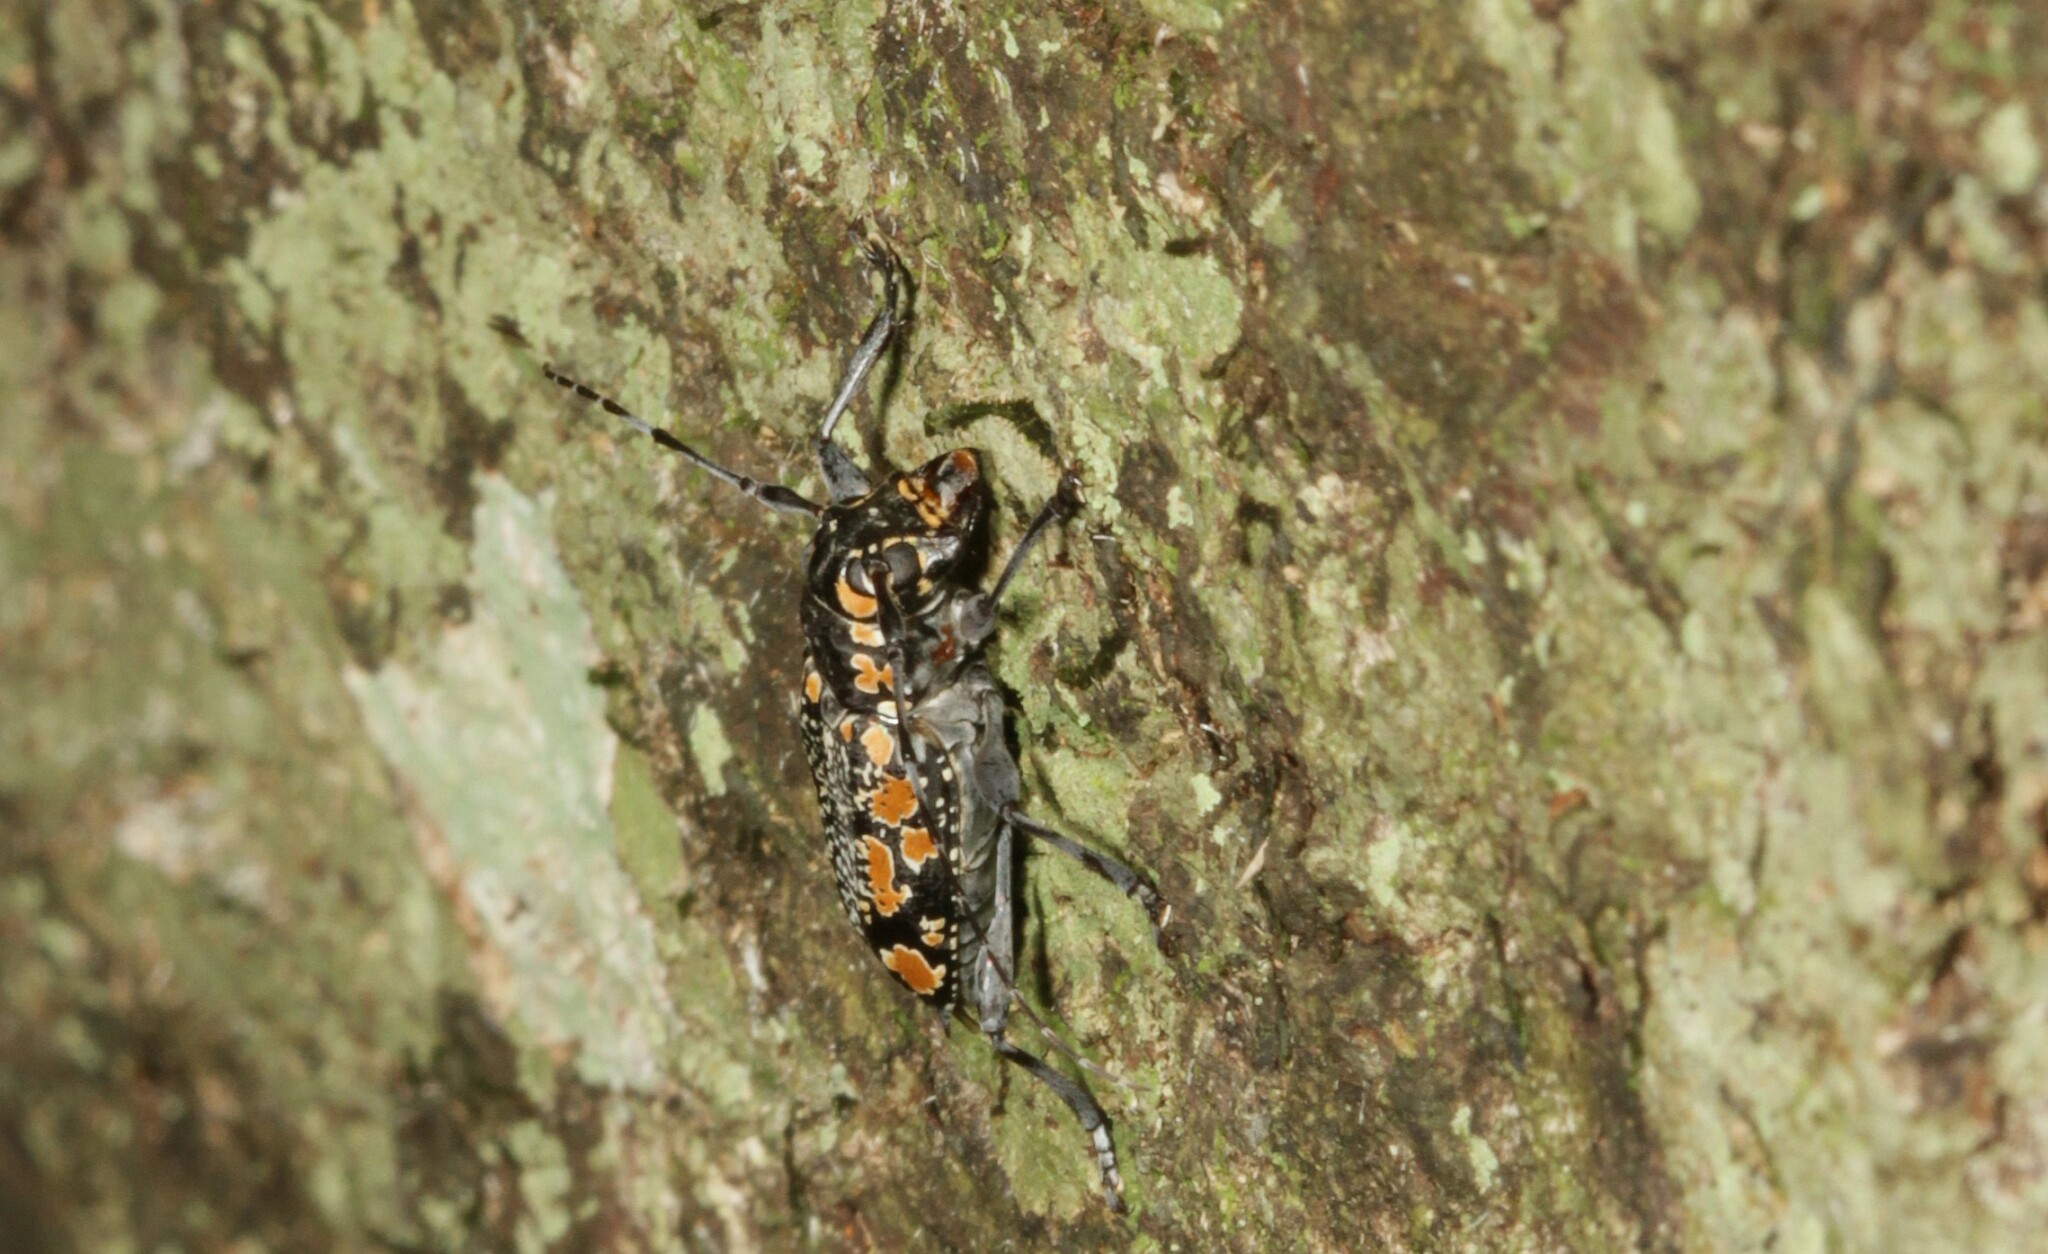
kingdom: Animalia
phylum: Arthropoda
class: Insecta
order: Coleoptera
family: Cerambycidae
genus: Aegomorphus
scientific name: Aegomorphus
